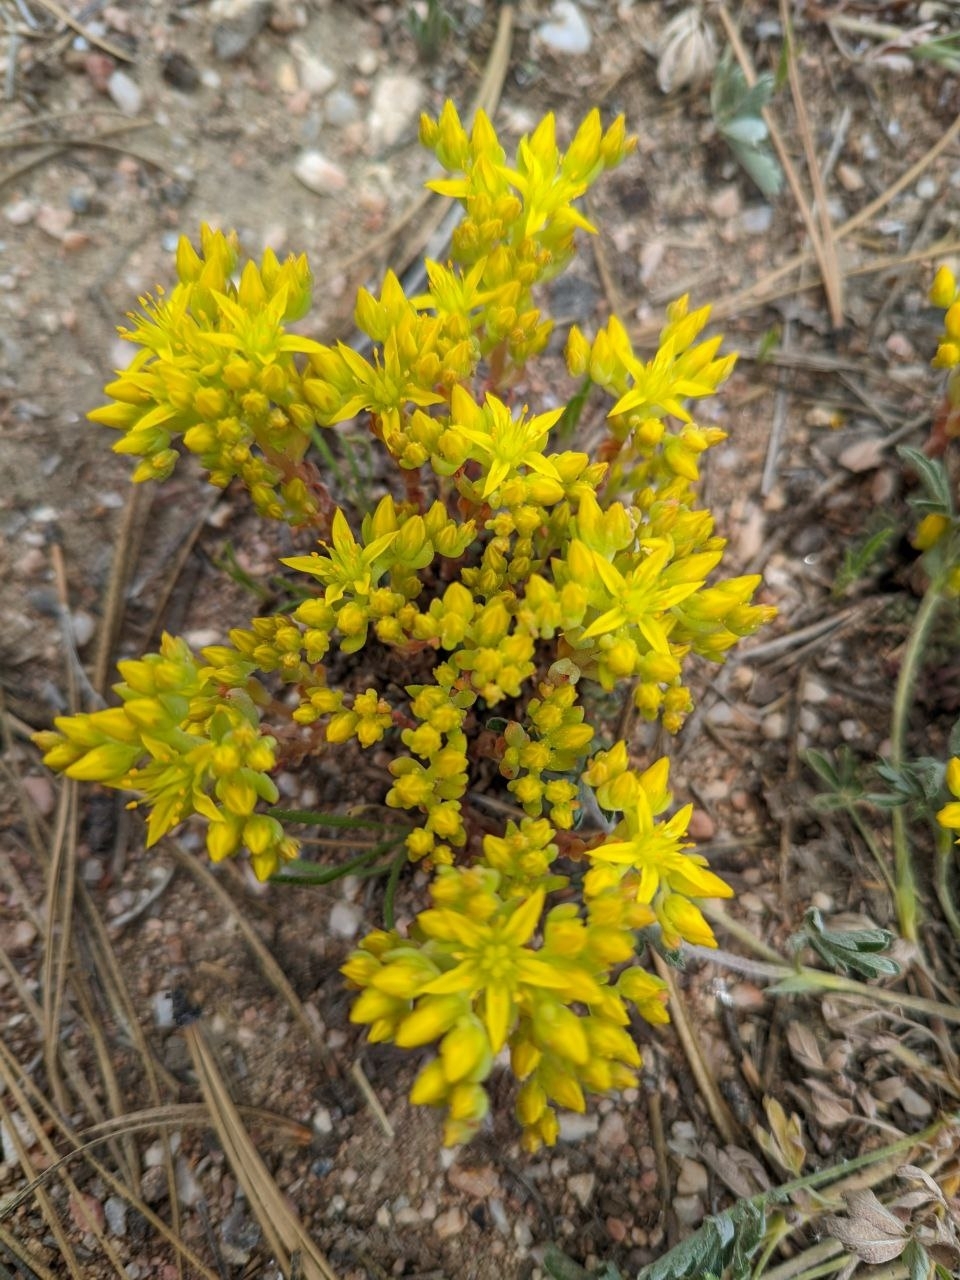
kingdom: Plantae
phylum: Tracheophyta
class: Magnoliopsida
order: Saxifragales
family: Crassulaceae
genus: Sedum
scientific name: Sedum lanceolatum
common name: Common stonecrop
